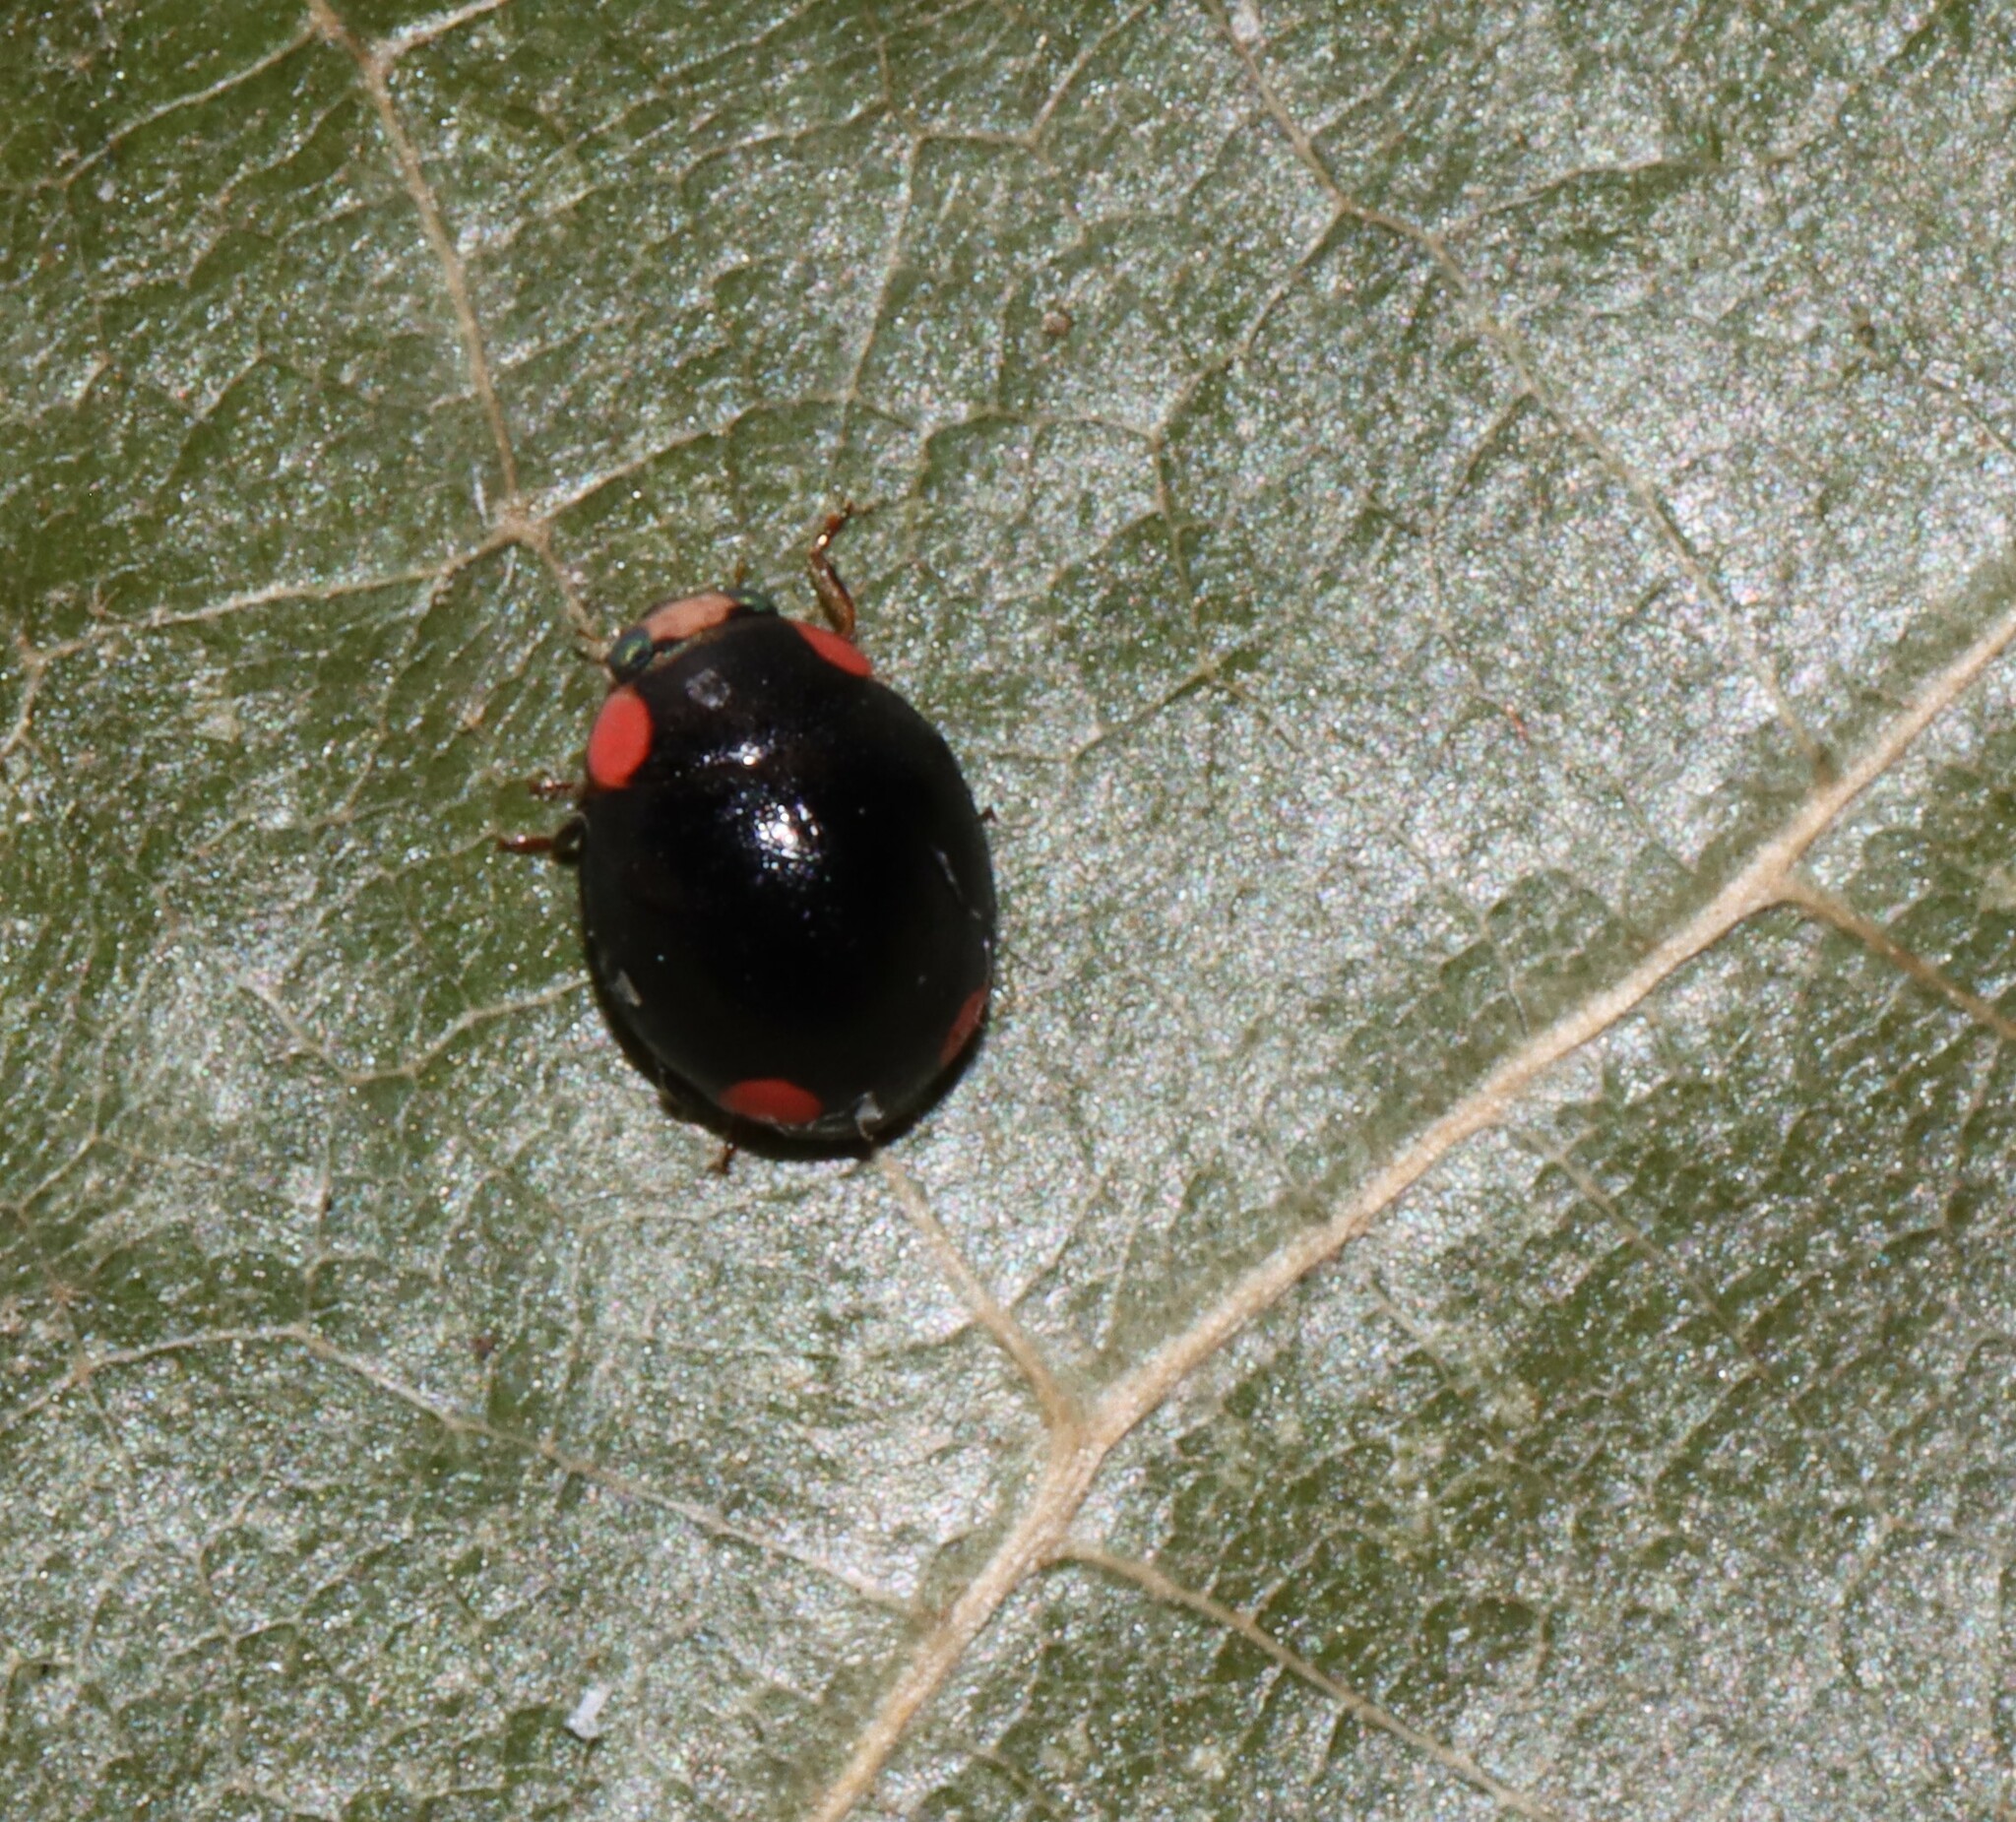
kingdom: Animalia
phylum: Arthropoda
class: Insecta
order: Coleoptera
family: Coccinellidae
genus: Hyperaspis
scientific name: Hyperaspis bigeminata
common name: Bigeminate sigil lady beetle
